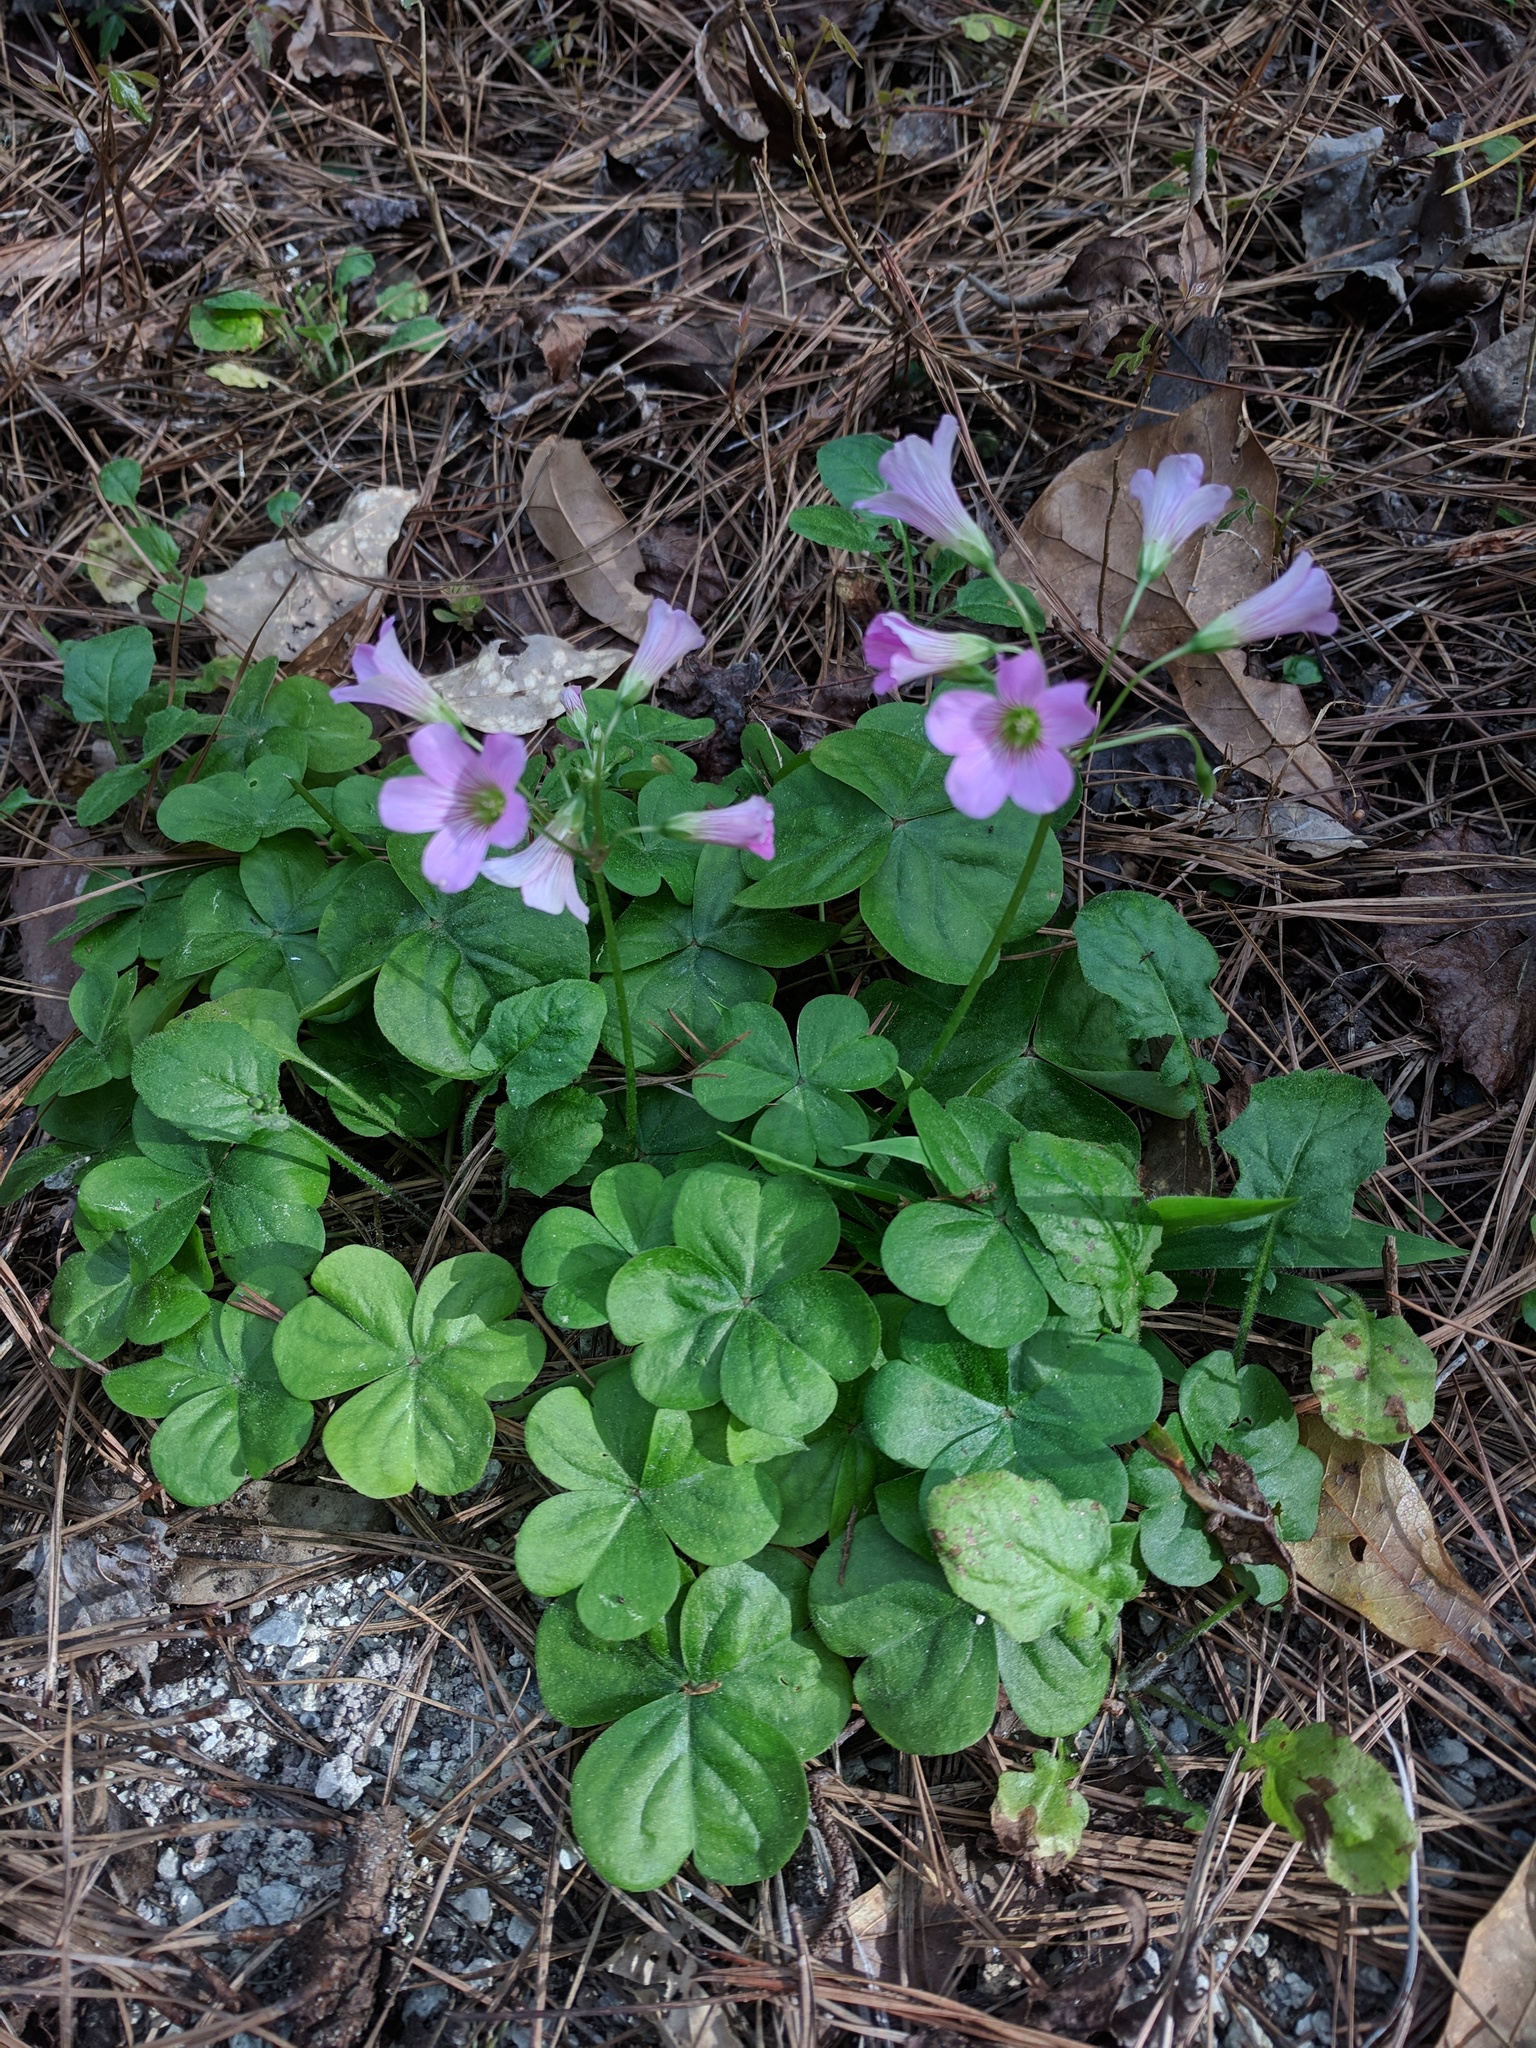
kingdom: Plantae
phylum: Tracheophyta
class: Magnoliopsida
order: Oxalidales
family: Oxalidaceae
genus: Oxalis
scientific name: Oxalis debilis
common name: Large-flowered pink-sorrel
